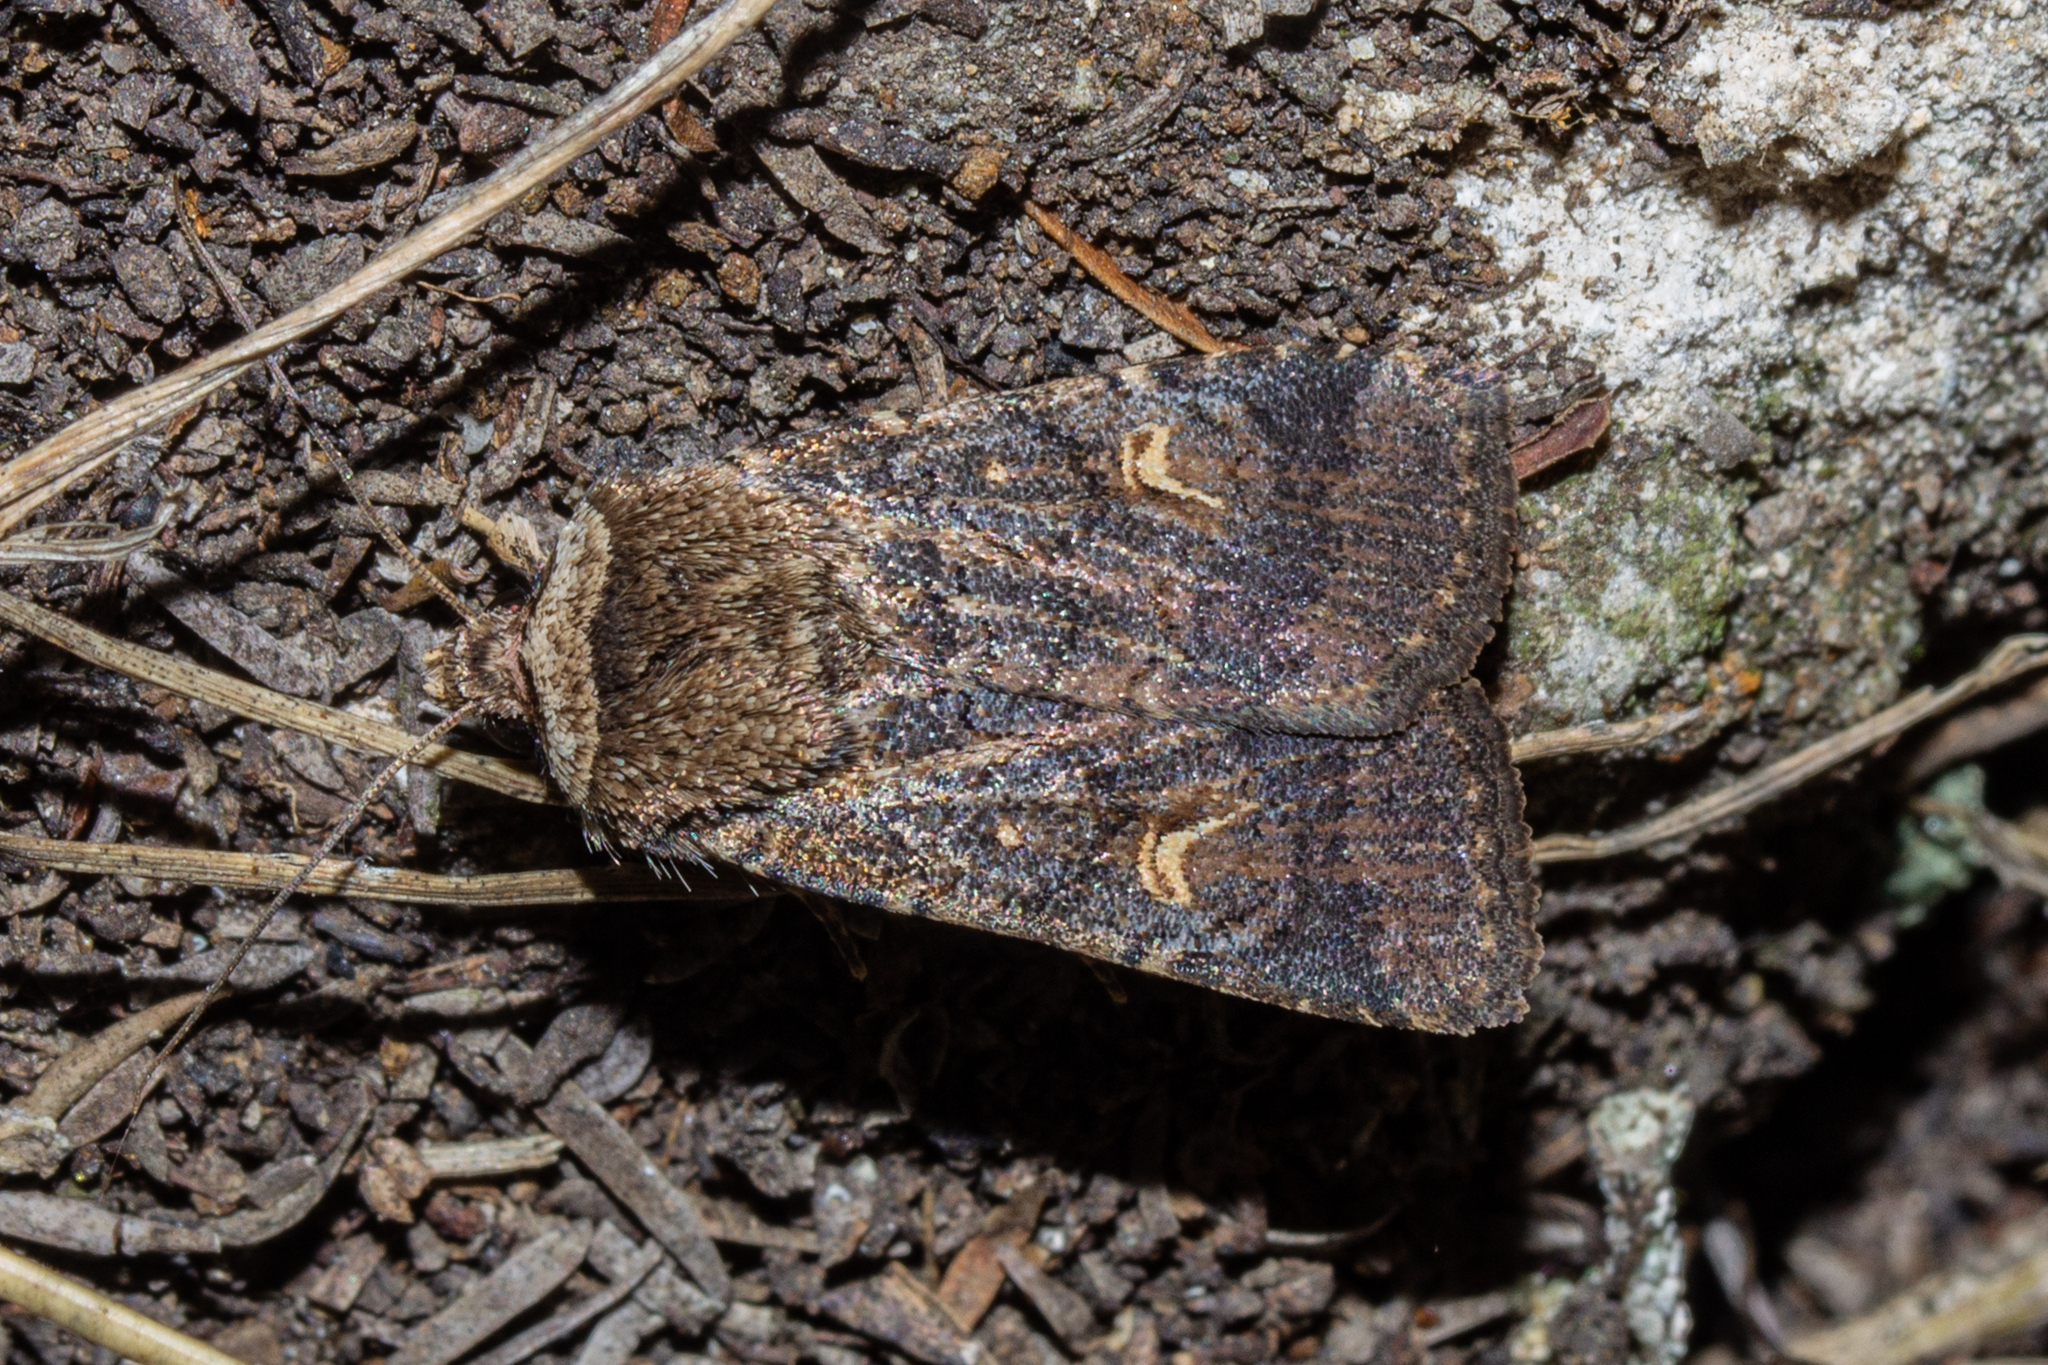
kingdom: Animalia
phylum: Arthropoda
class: Insecta
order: Lepidoptera
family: Noctuidae
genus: Proteuxoa
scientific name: Proteuxoa tetronycha
